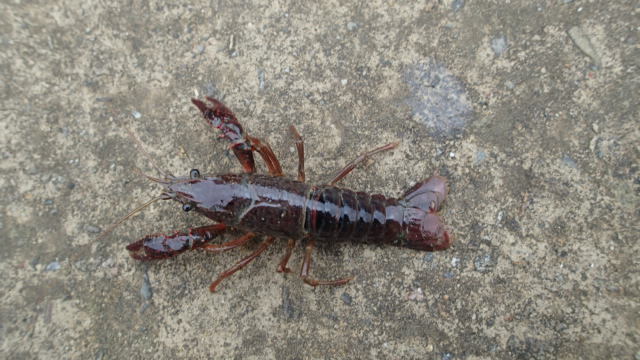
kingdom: Animalia
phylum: Arthropoda
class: Malacostraca
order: Decapoda
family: Cambaridae
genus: Procambarus
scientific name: Procambarus clarkii
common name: Red swamp crayfish
